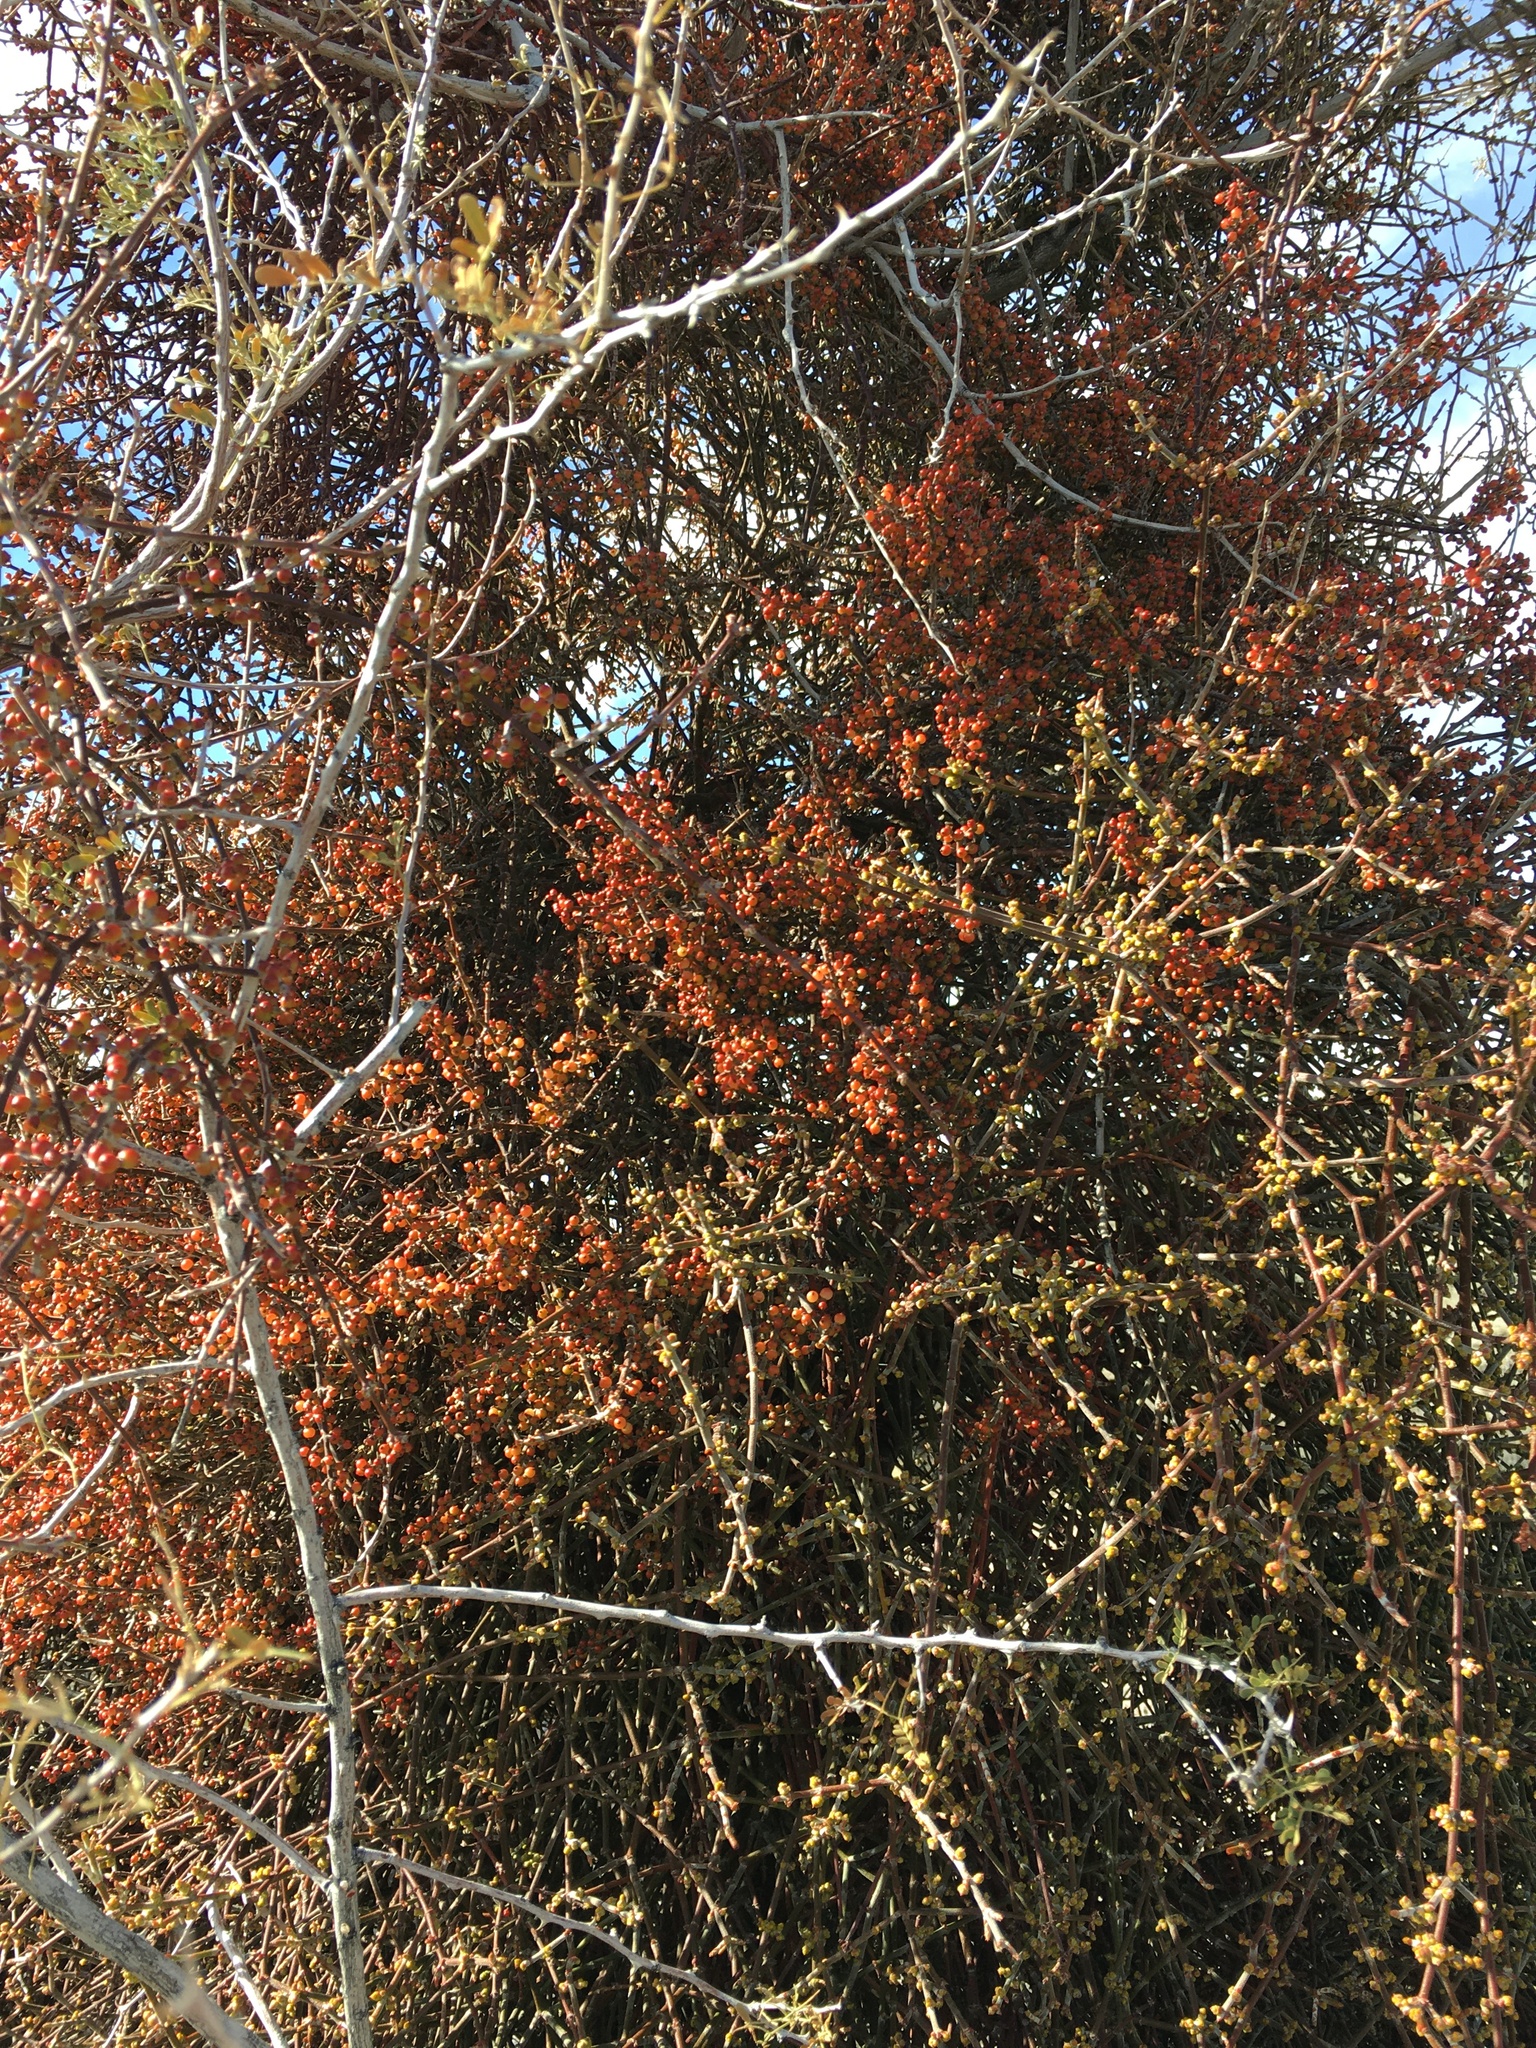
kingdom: Plantae
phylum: Tracheophyta
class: Magnoliopsida
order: Santalales
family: Viscaceae
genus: Phoradendron
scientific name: Phoradendron californicum
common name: Acacia mistletoe
